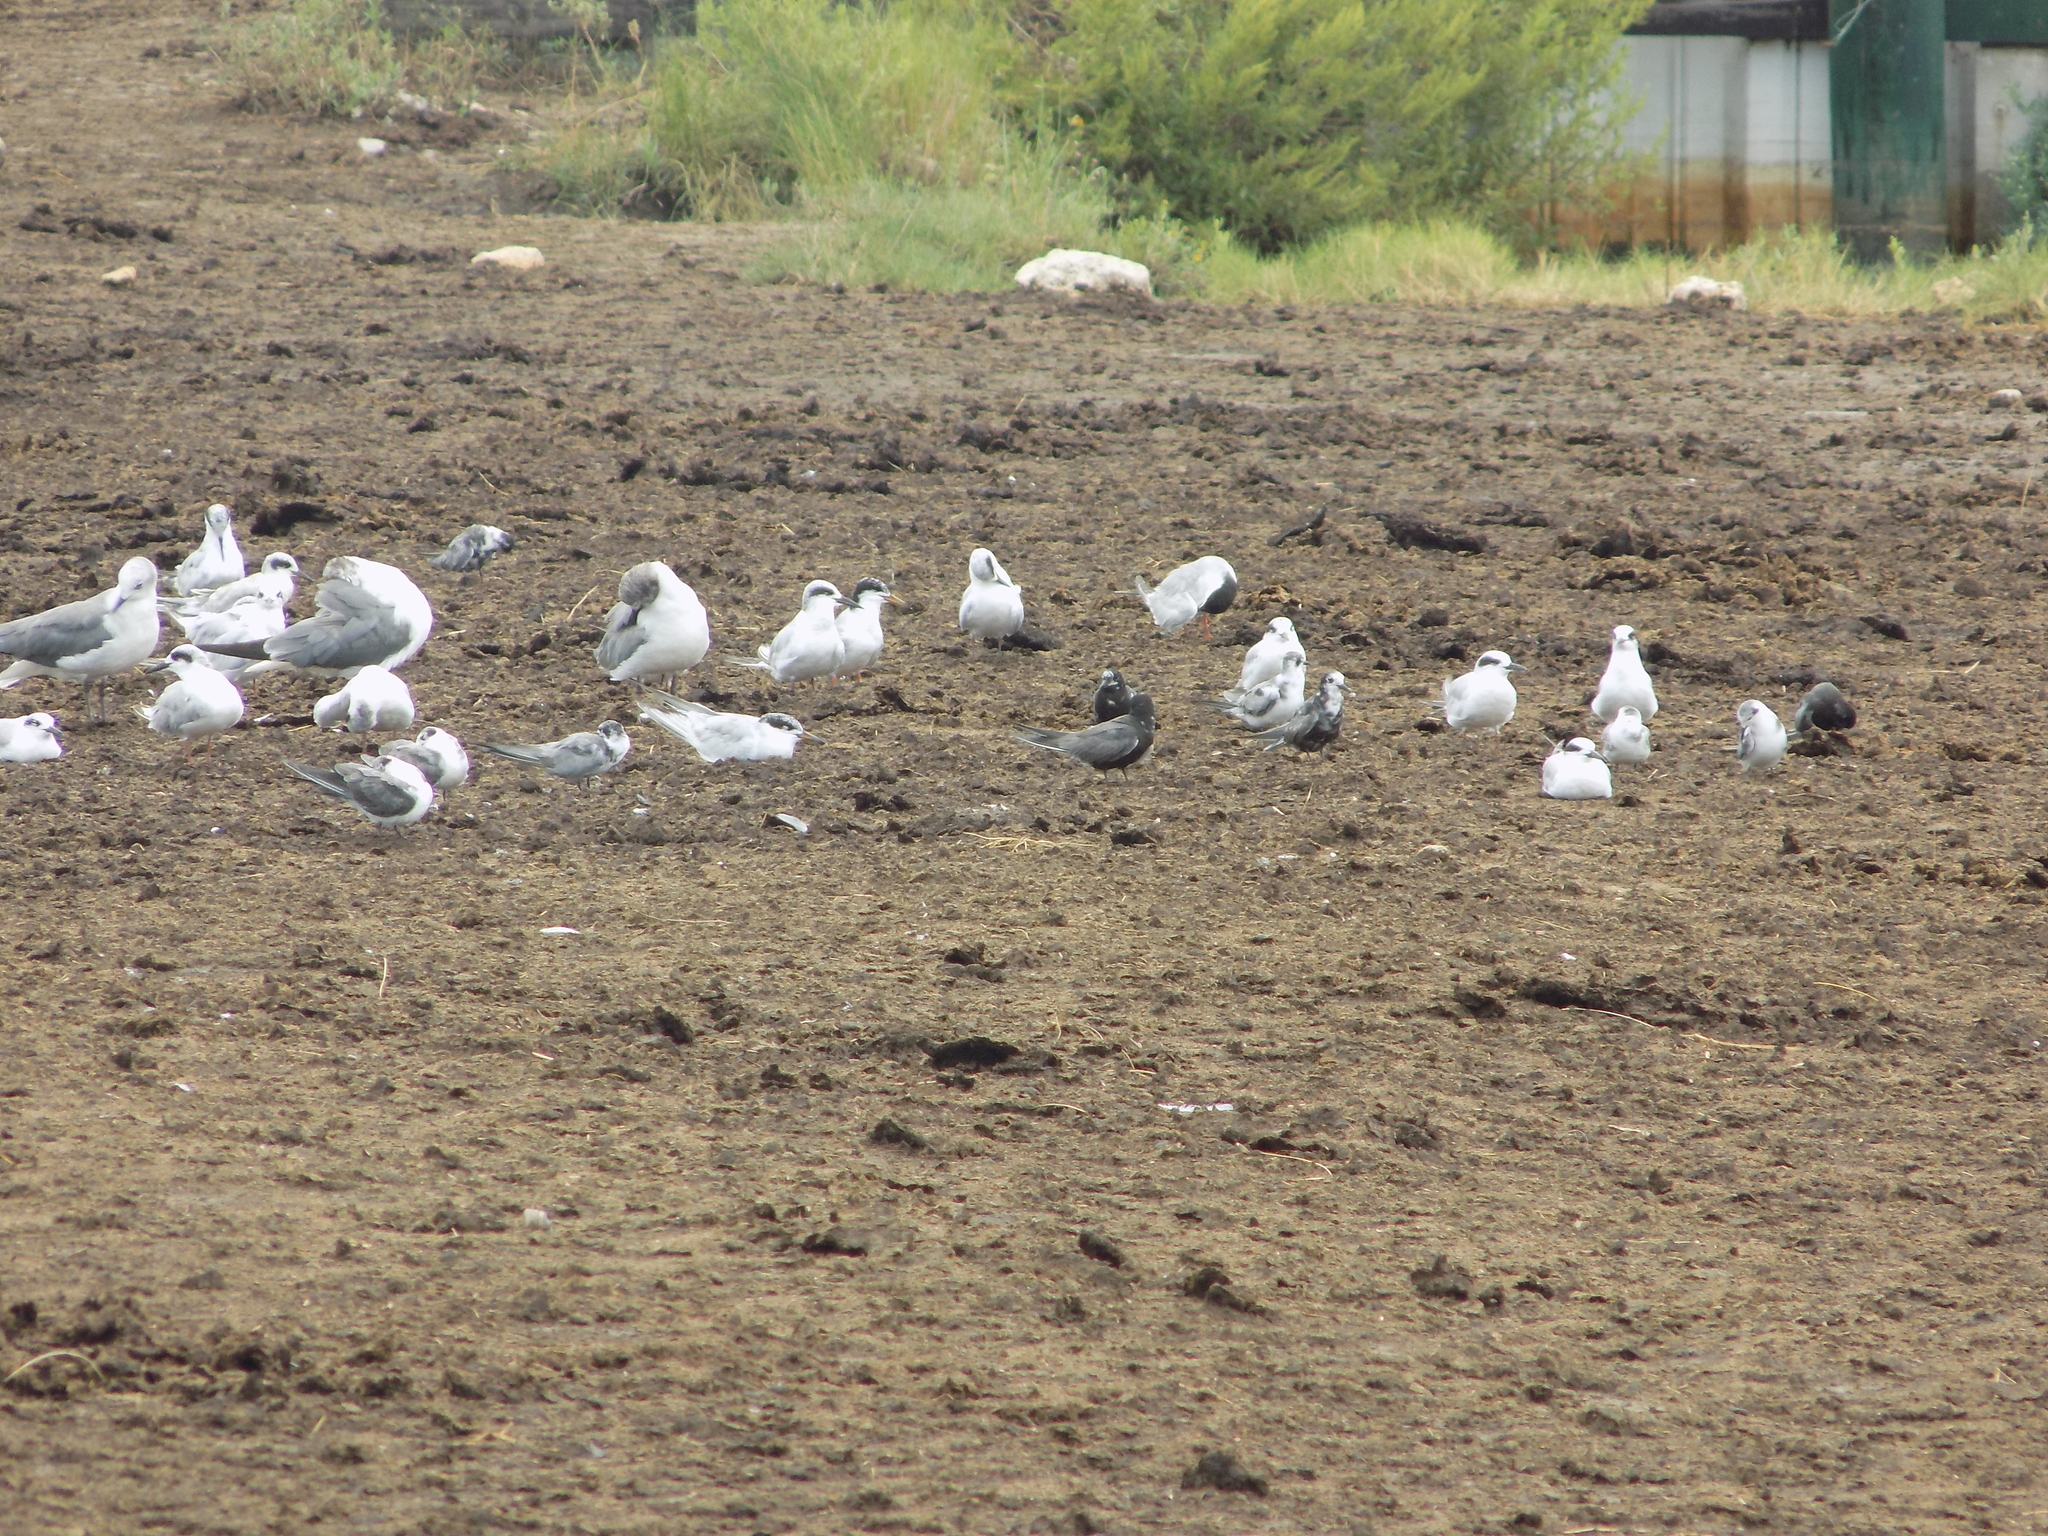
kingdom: Animalia
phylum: Chordata
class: Aves
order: Charadriiformes
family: Laridae
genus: Chlidonias
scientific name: Chlidonias niger
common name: Black tern
